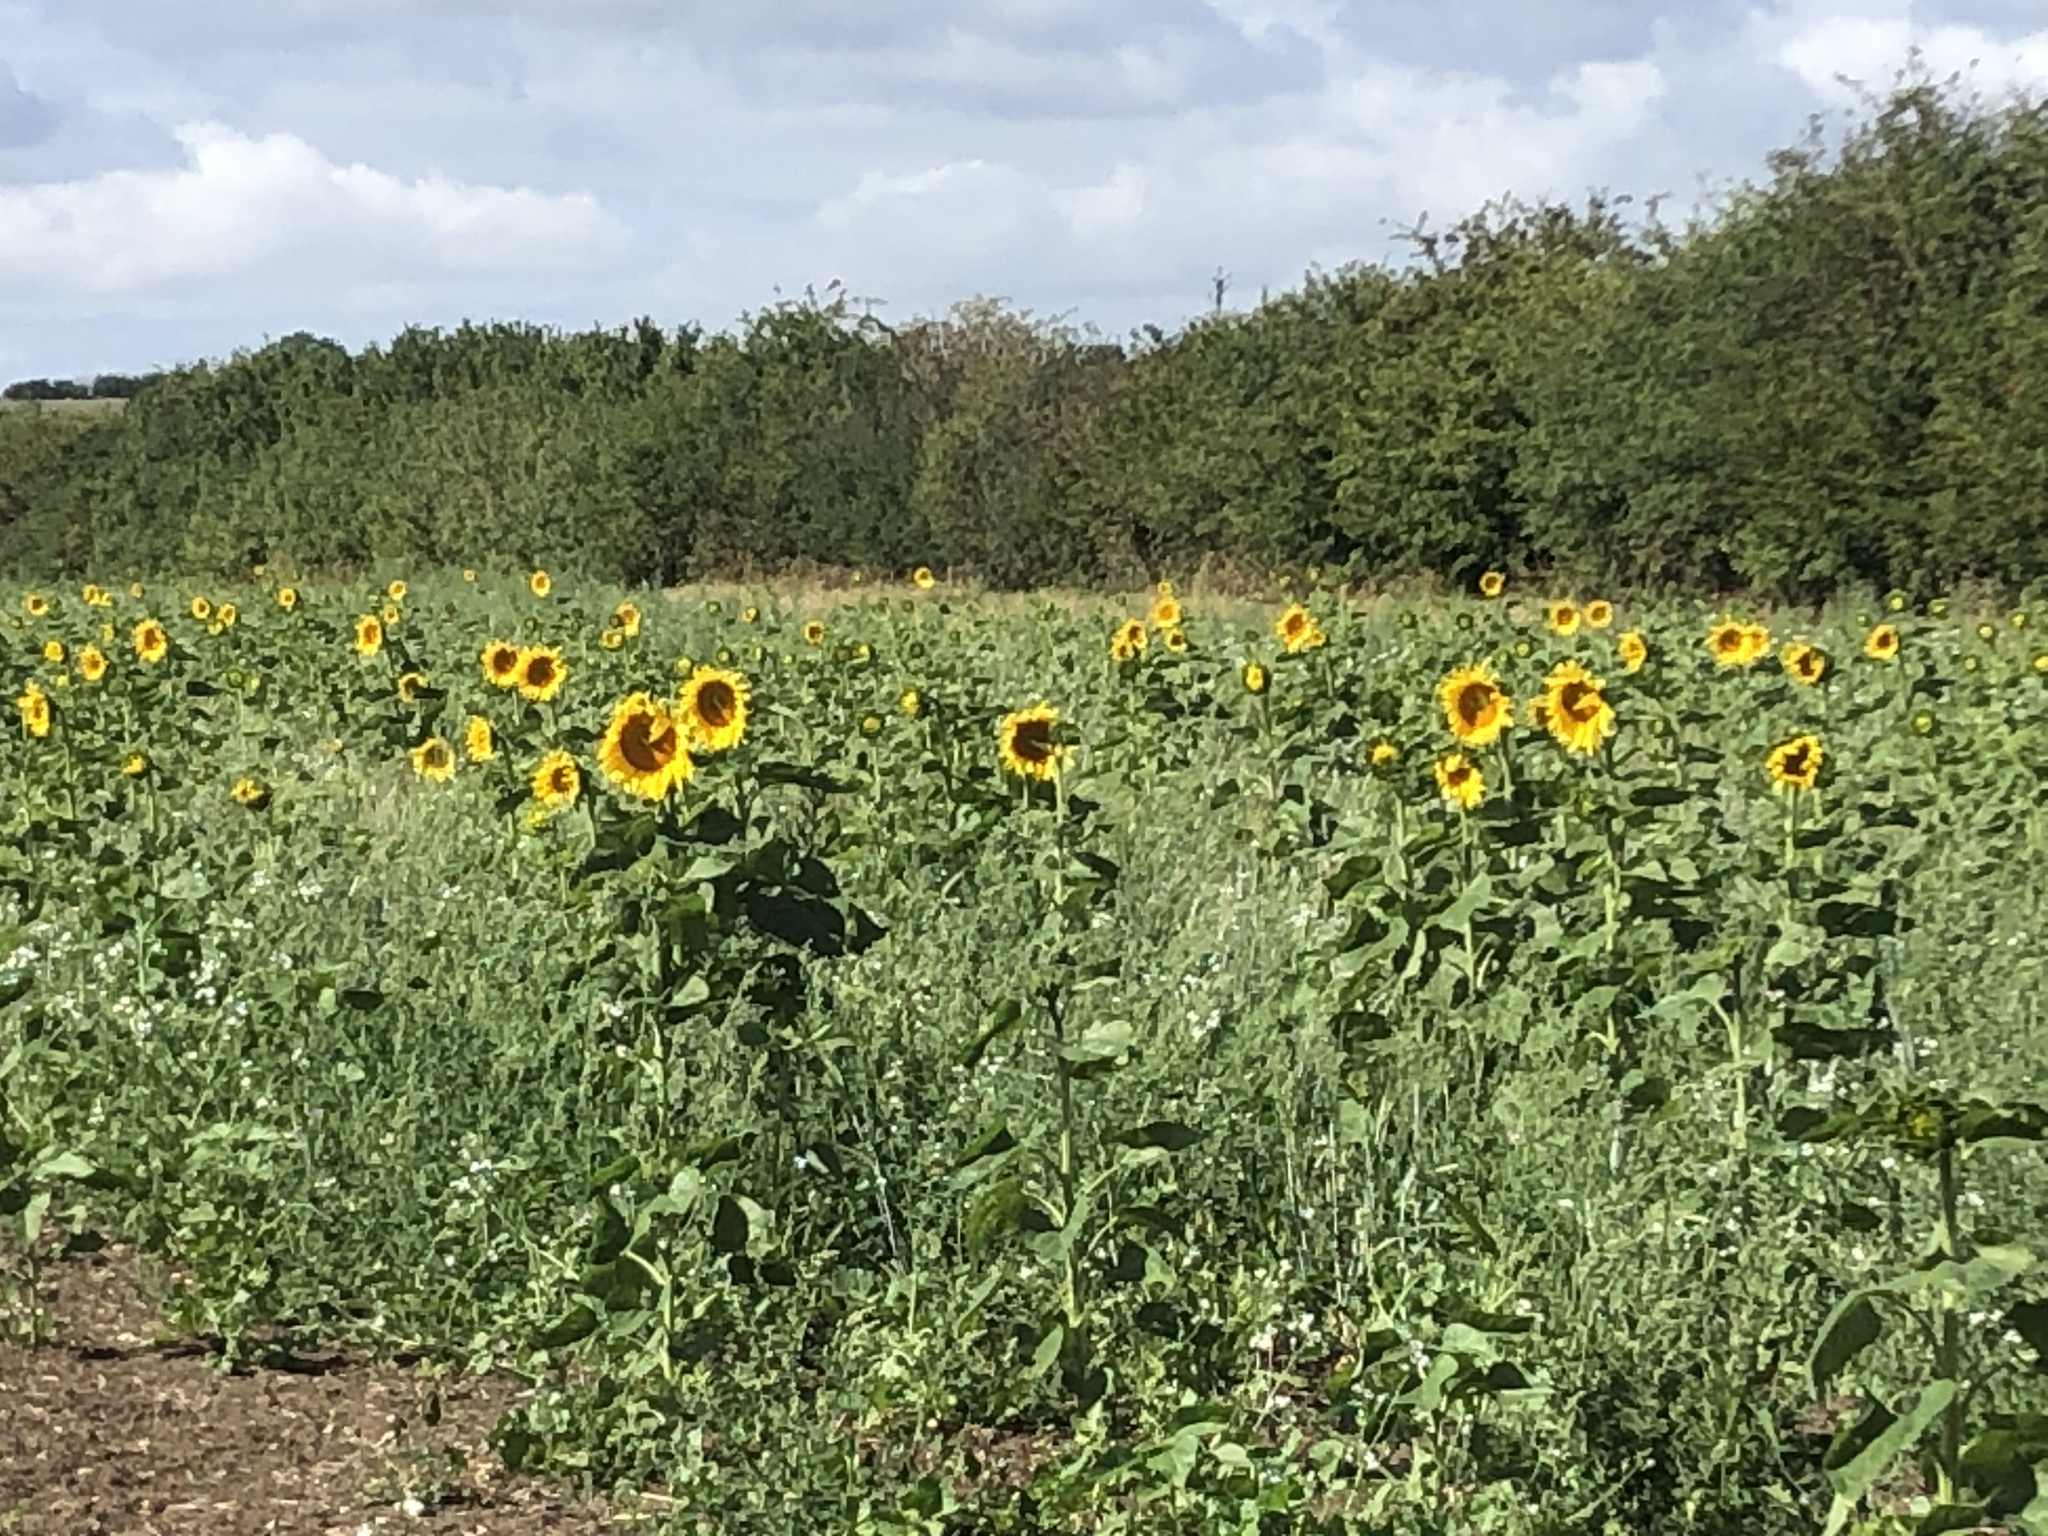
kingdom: Plantae
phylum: Tracheophyta
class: Magnoliopsida
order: Asterales
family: Asteraceae
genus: Helianthus
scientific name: Helianthus annuus
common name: Sunflower
